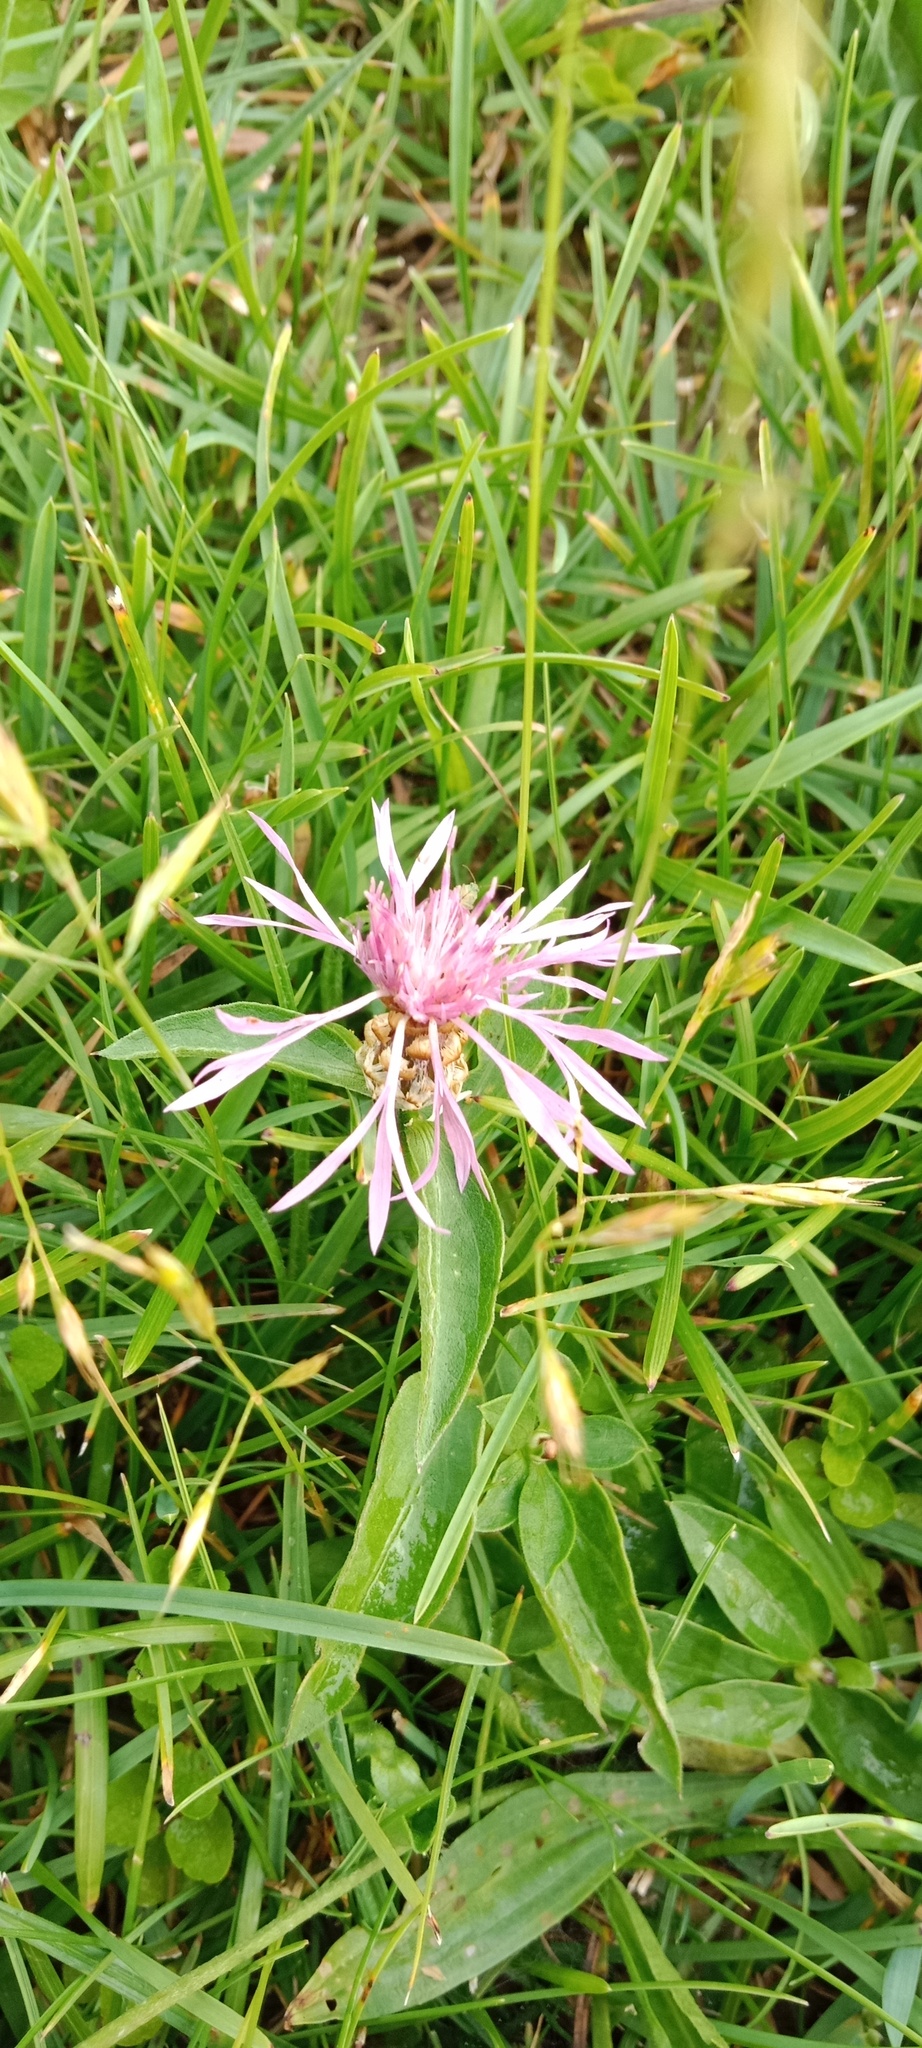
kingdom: Plantae
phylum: Tracheophyta
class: Magnoliopsida
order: Asterales
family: Asteraceae
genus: Centaurea
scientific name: Centaurea jacea
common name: Brown knapweed
